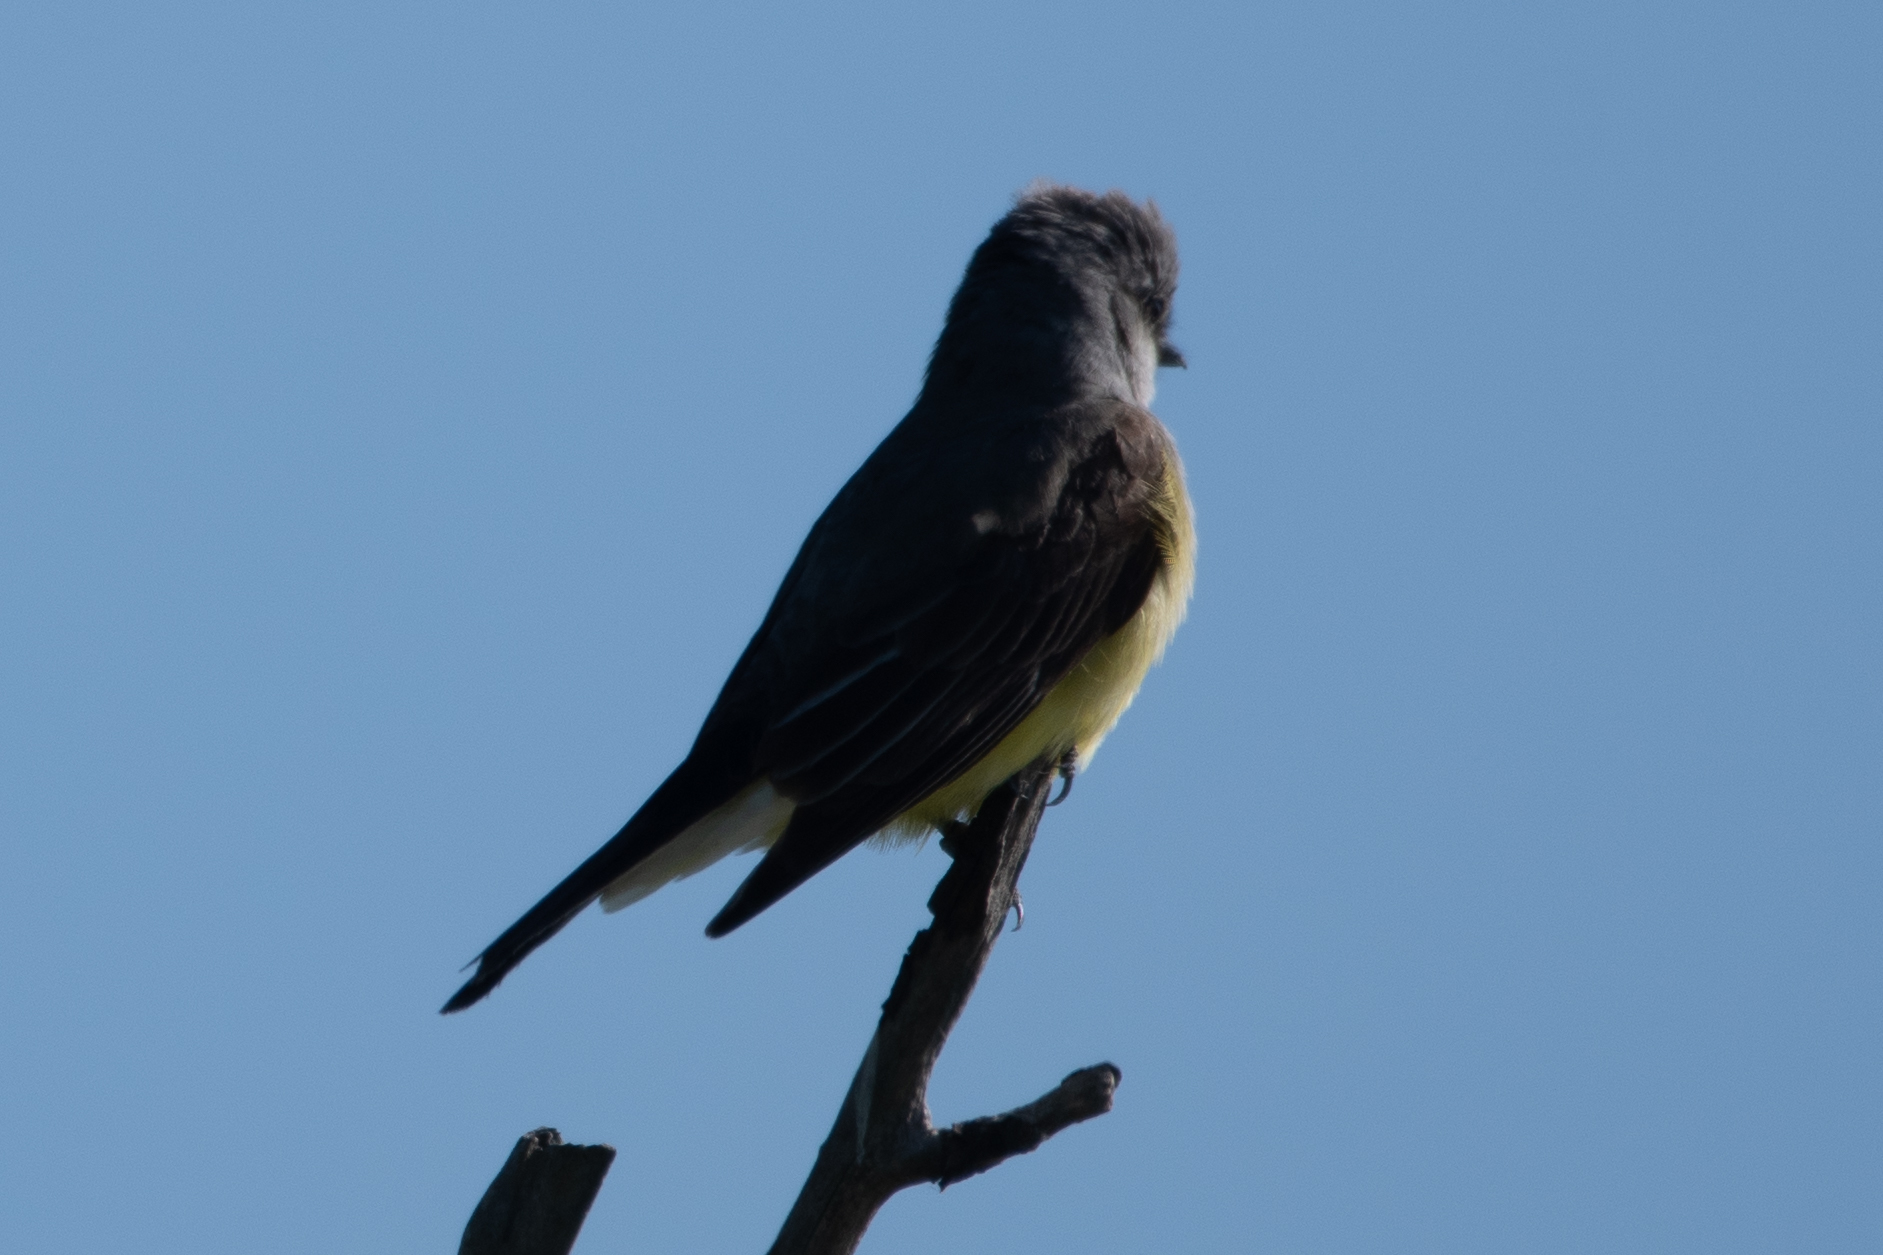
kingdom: Animalia
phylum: Chordata
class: Aves
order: Passeriformes
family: Tyrannidae
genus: Tyrannus
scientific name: Tyrannus verticalis
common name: Western kingbird
